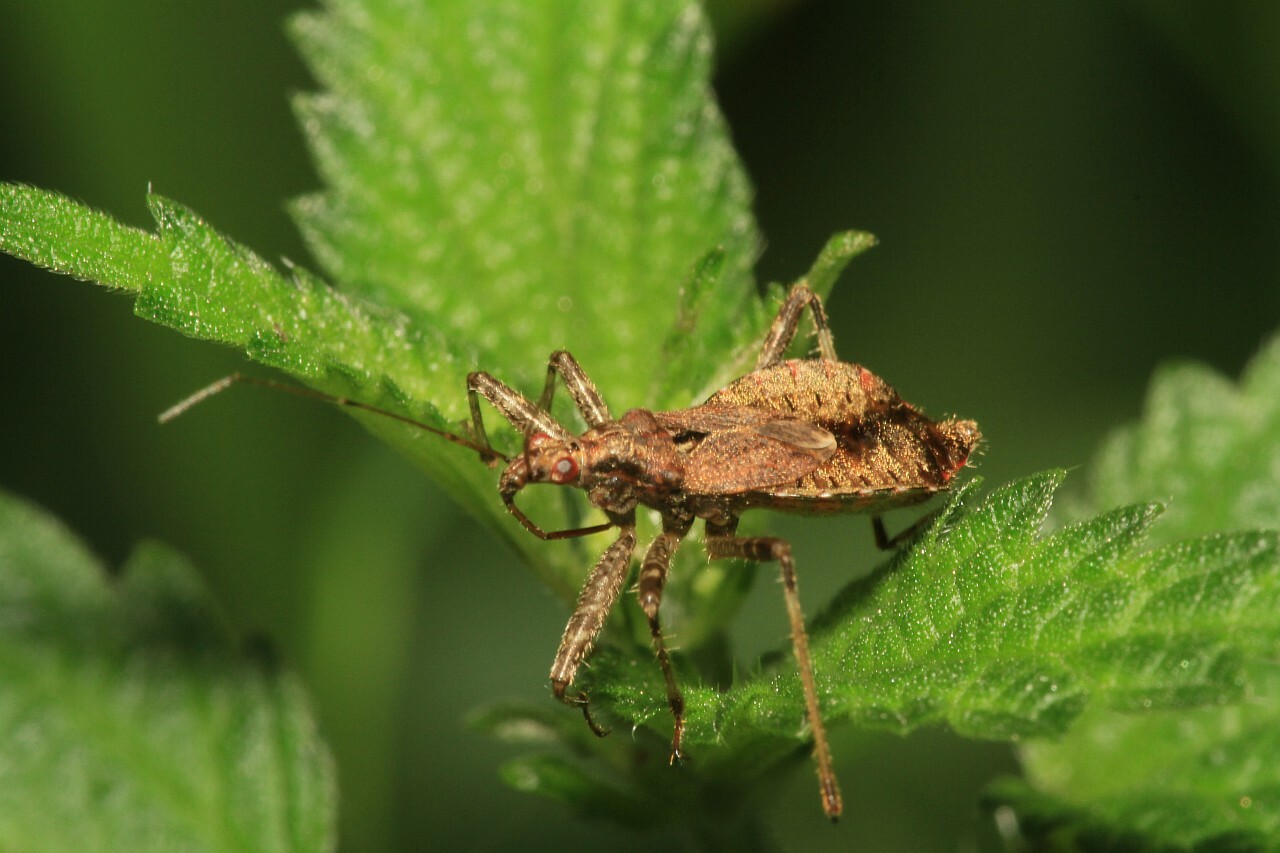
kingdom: Animalia
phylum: Arthropoda
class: Insecta
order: Hemiptera
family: Nabidae
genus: Himacerus
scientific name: Himacerus apterus
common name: Tree damsel bug
